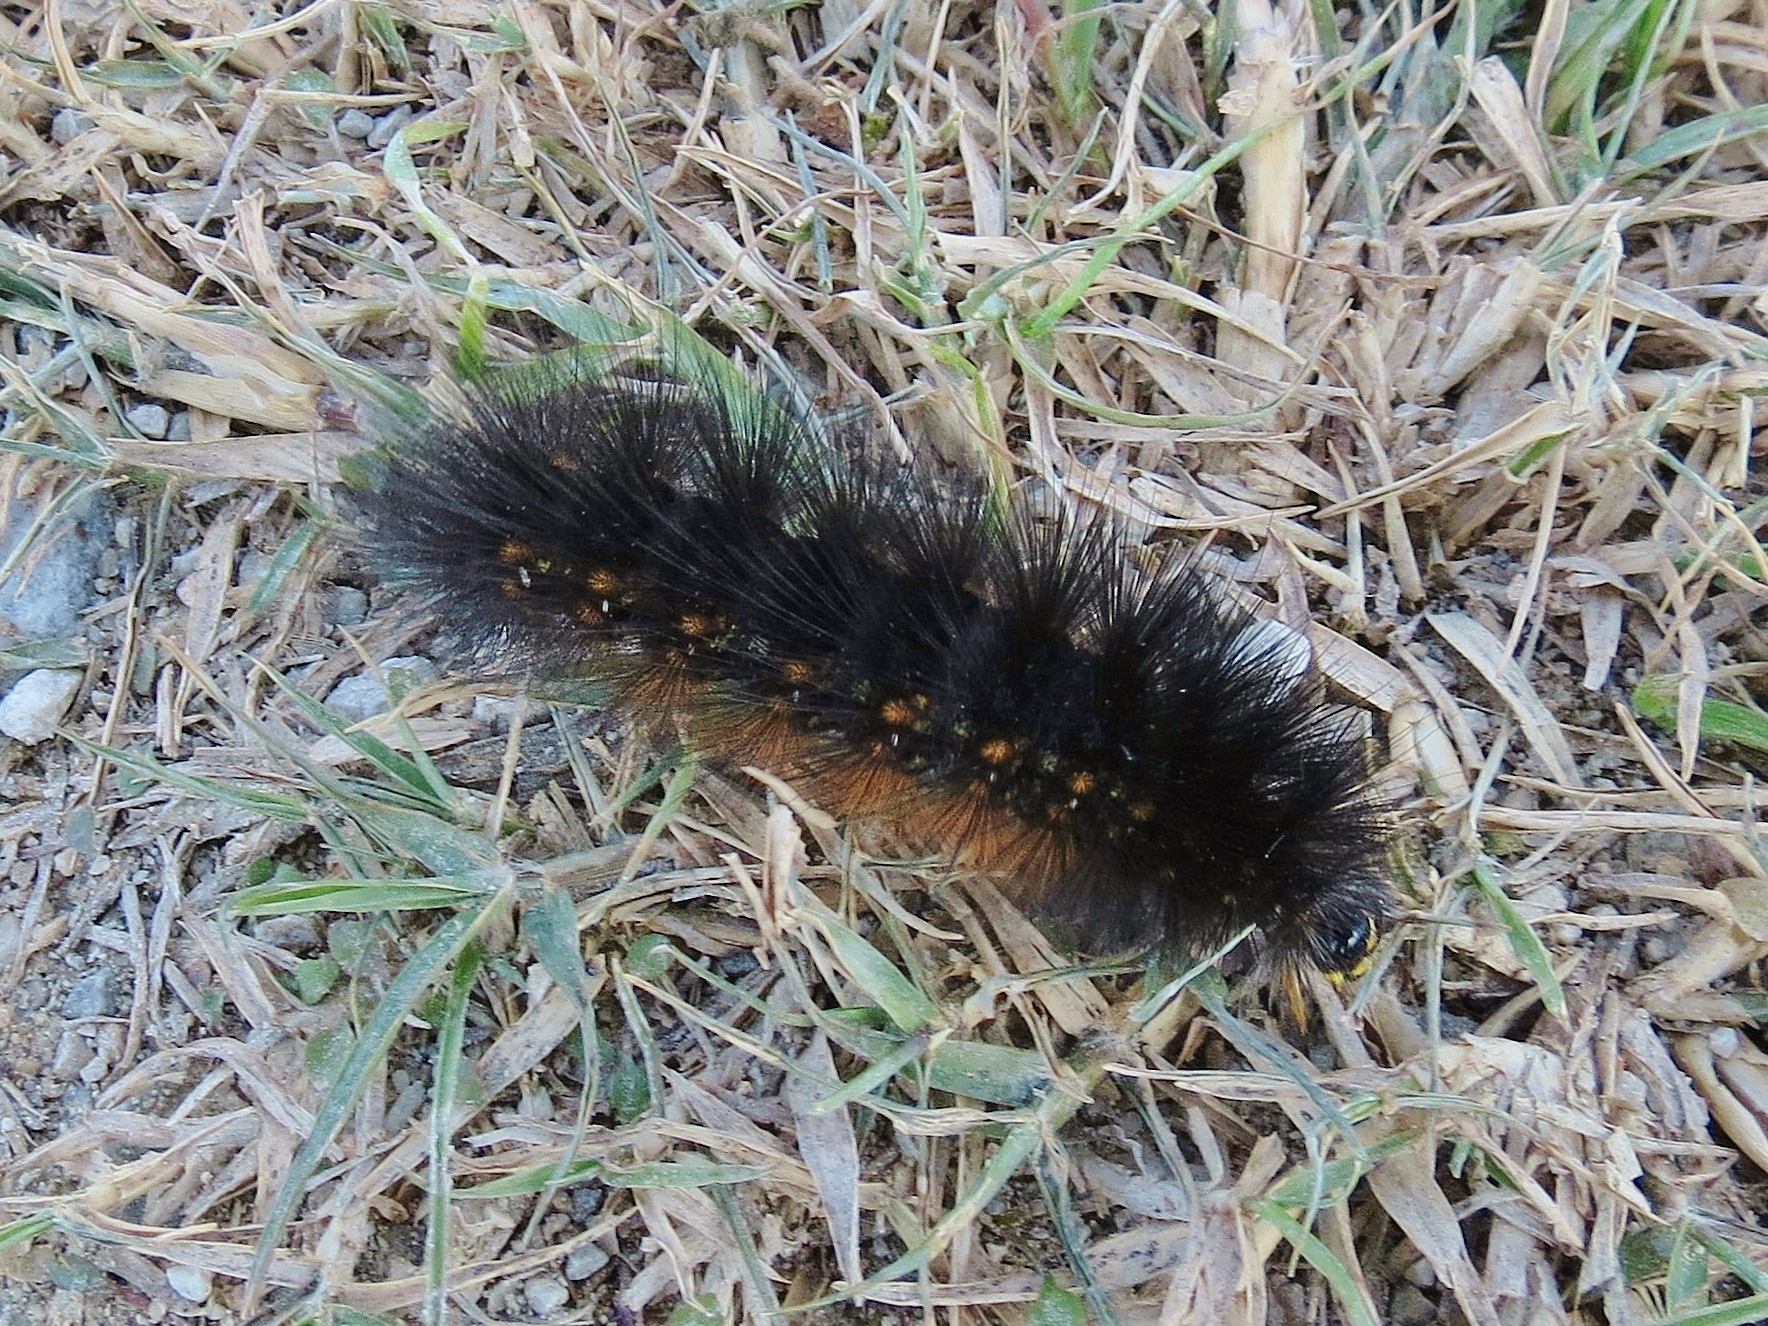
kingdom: Animalia
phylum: Arthropoda
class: Insecta
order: Lepidoptera
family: Erebidae
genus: Estigmene
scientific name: Estigmene acrea
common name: Salt marsh moth
